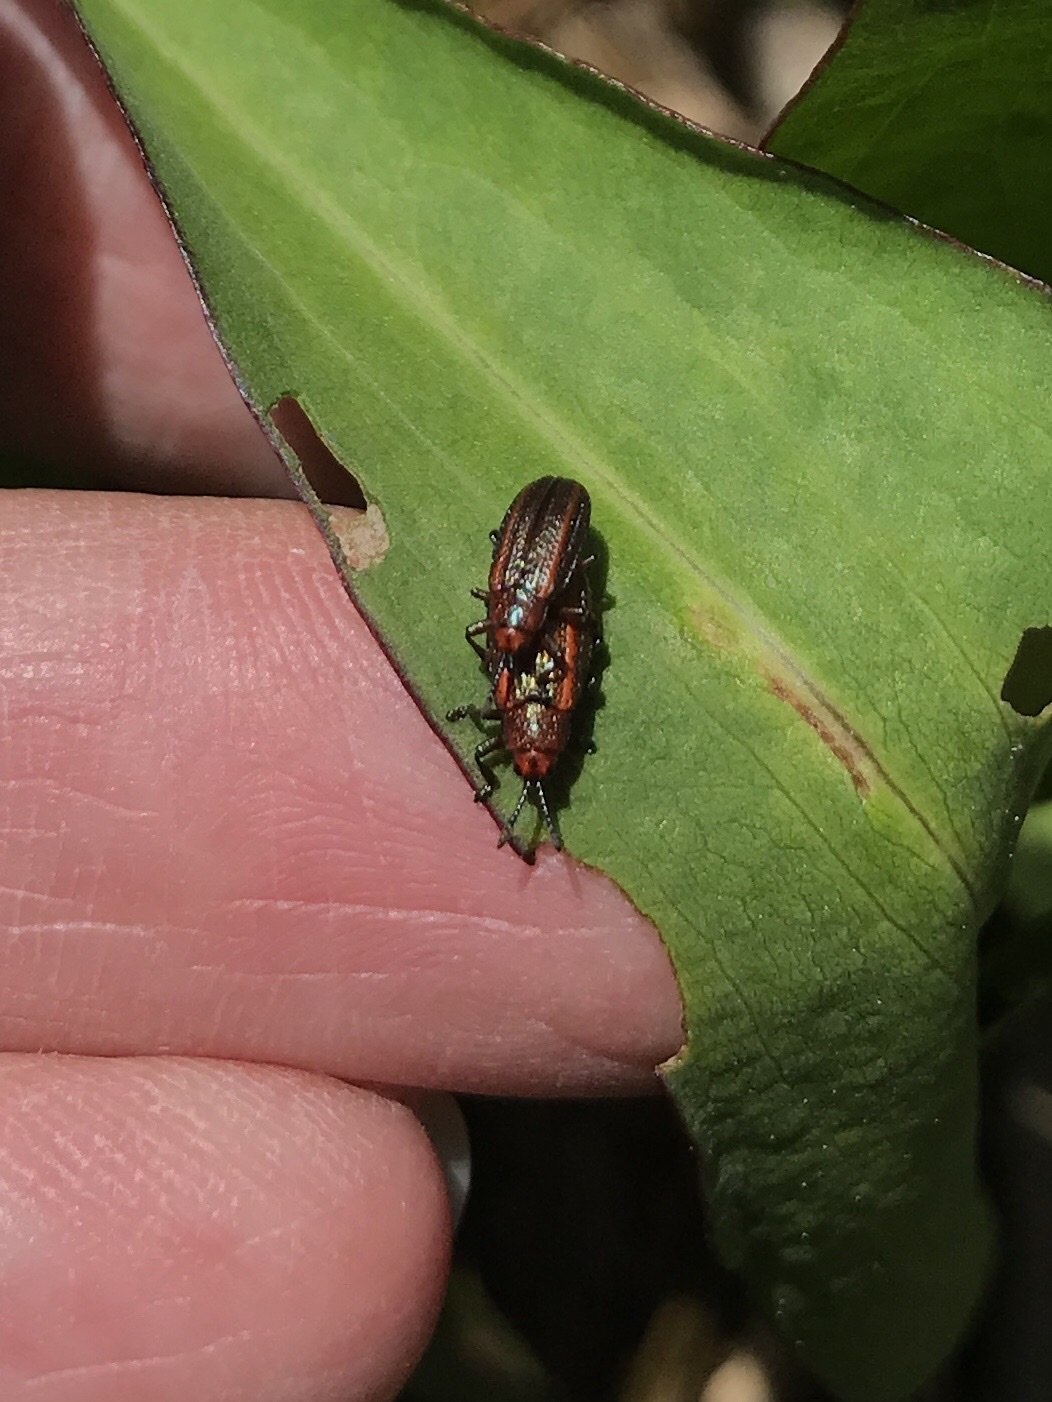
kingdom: Animalia
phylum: Arthropoda
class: Insecta
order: Coleoptera
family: Chrysomelidae
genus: Microrhopala
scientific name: Microrhopala vittata
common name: Goldenrod leaf miner beetle
